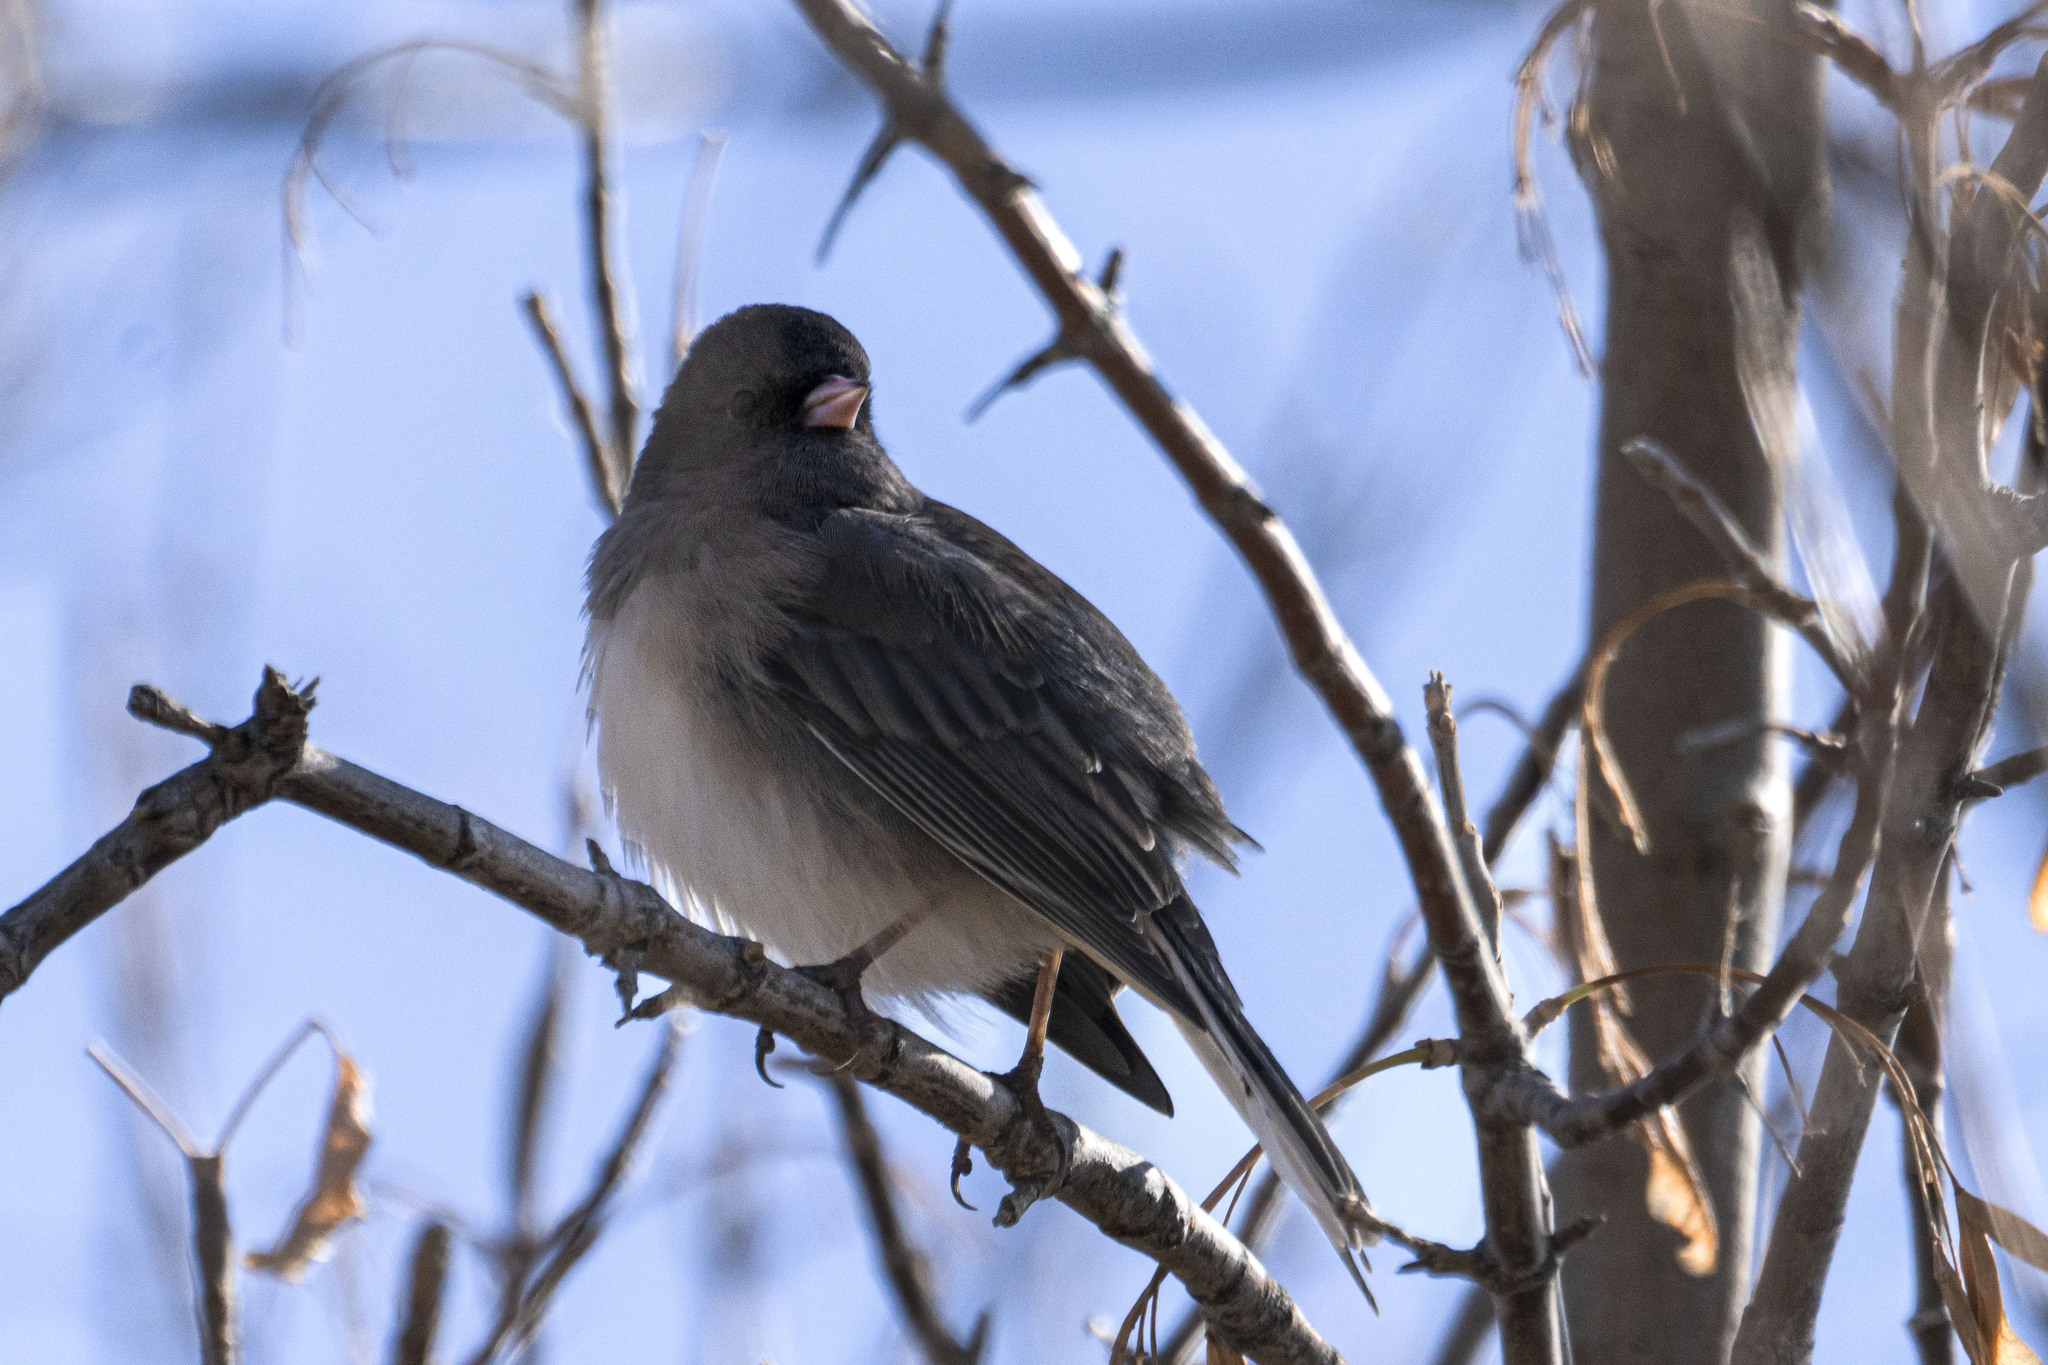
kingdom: Animalia
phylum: Chordata
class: Aves
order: Passeriformes
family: Passerellidae
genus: Junco
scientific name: Junco hyemalis
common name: Dark-eyed junco
